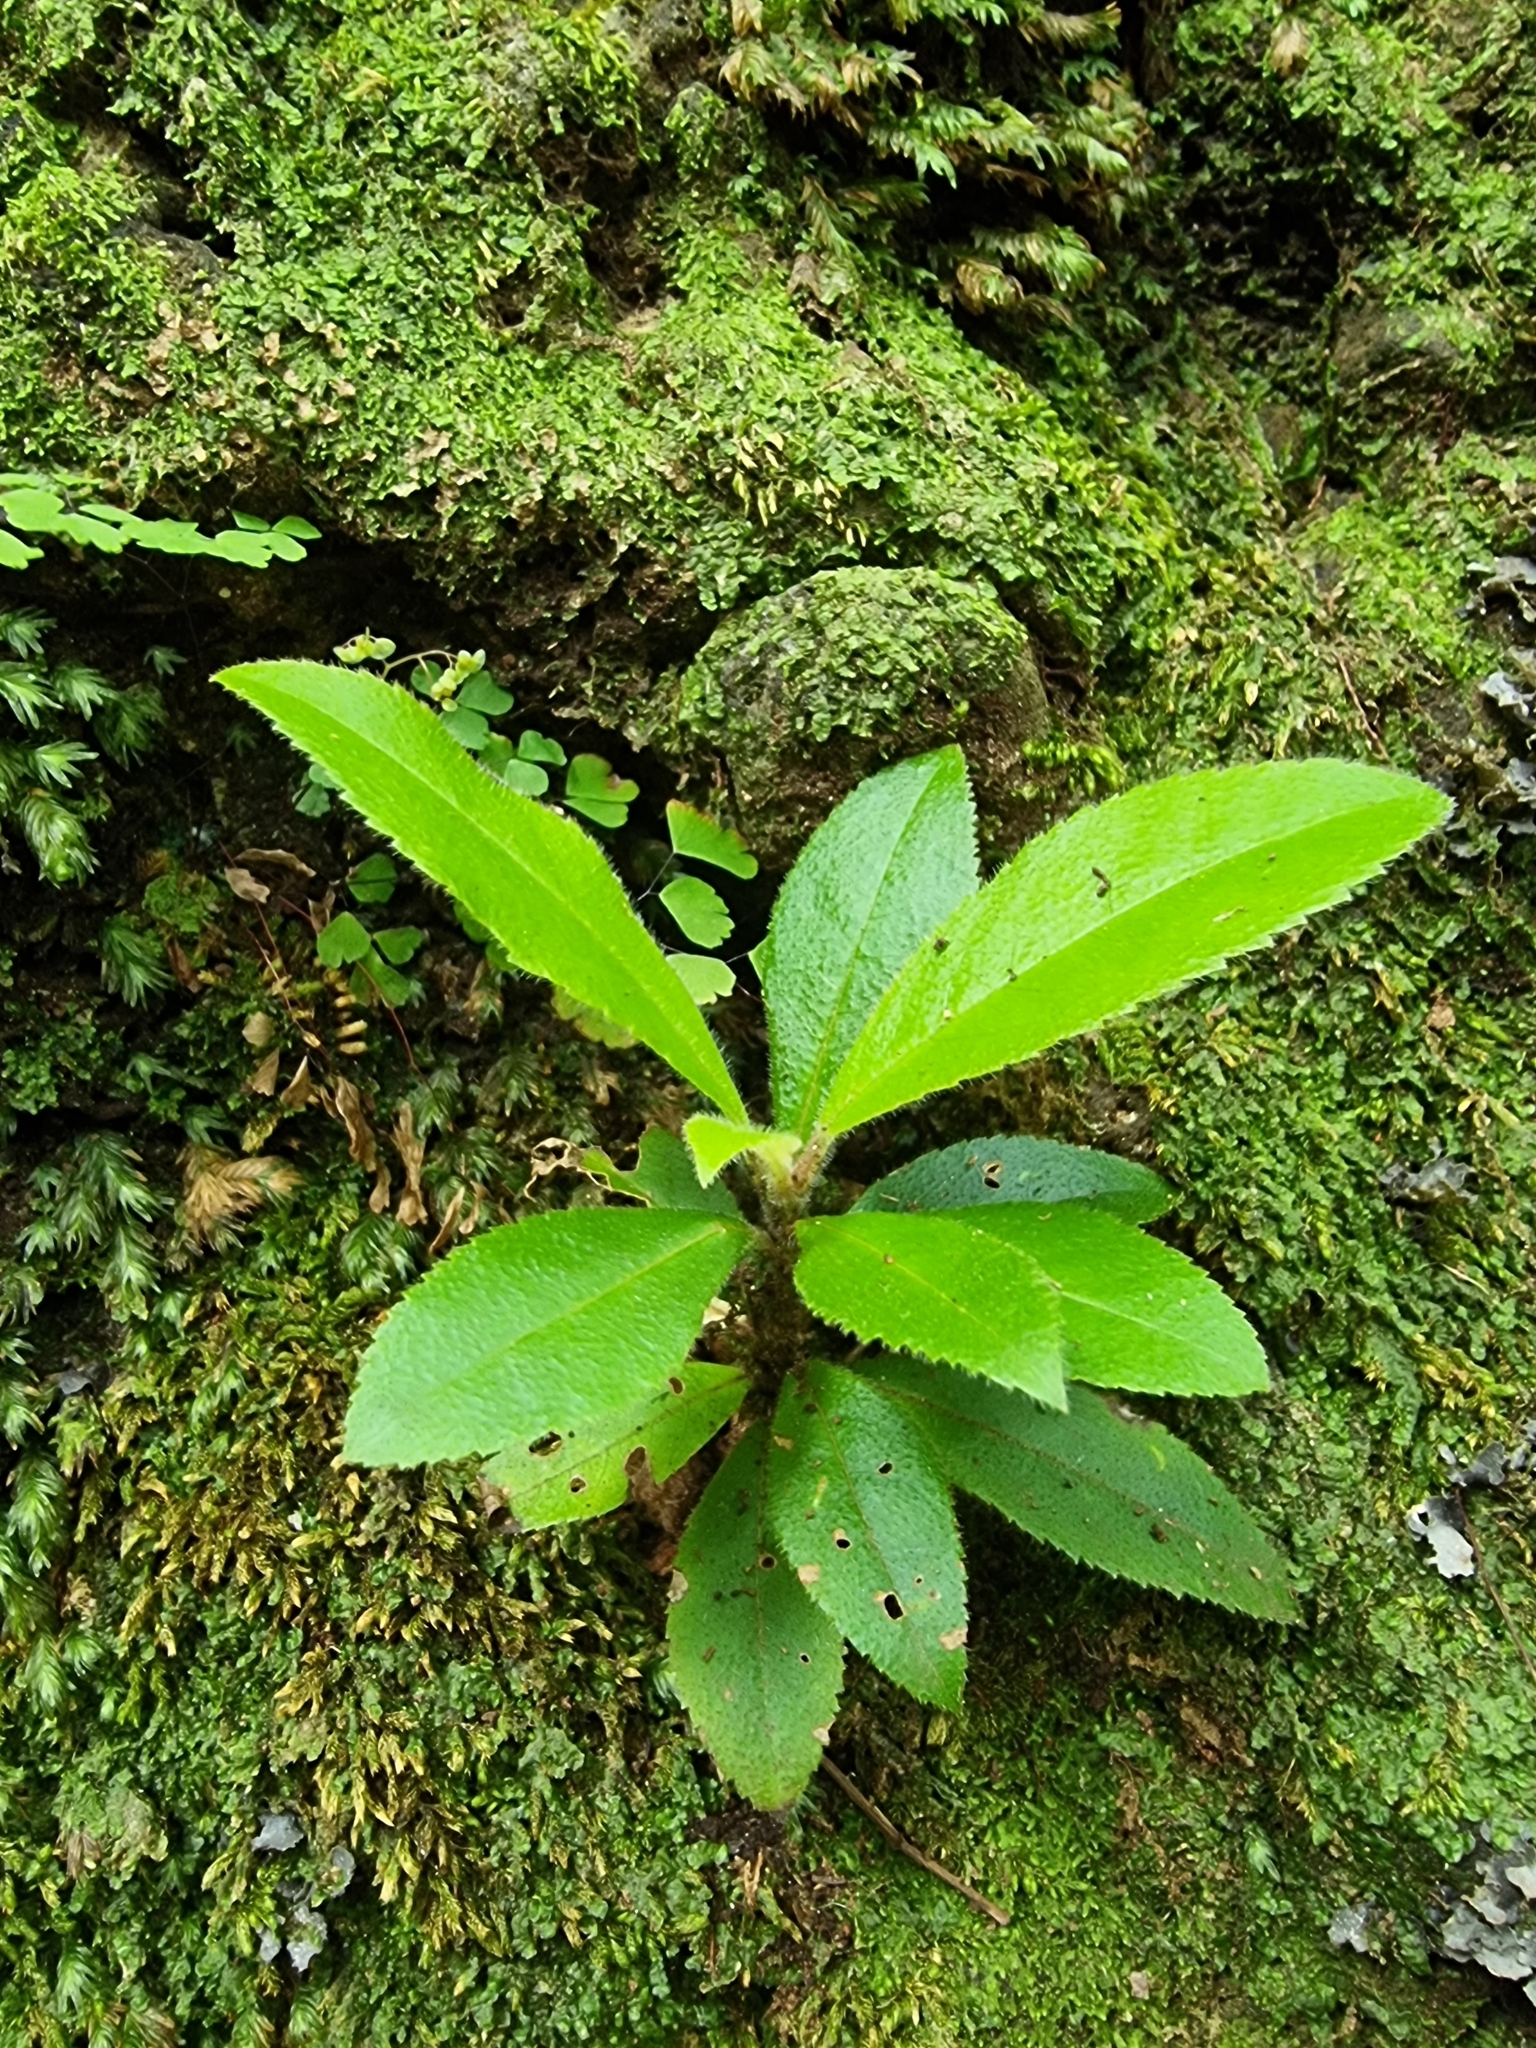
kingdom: Plantae
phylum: Tracheophyta
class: Magnoliopsida
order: Ericales
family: Clethraceae
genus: Clethra
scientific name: Clethra arborea
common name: Lily-of-the-valley-tree
